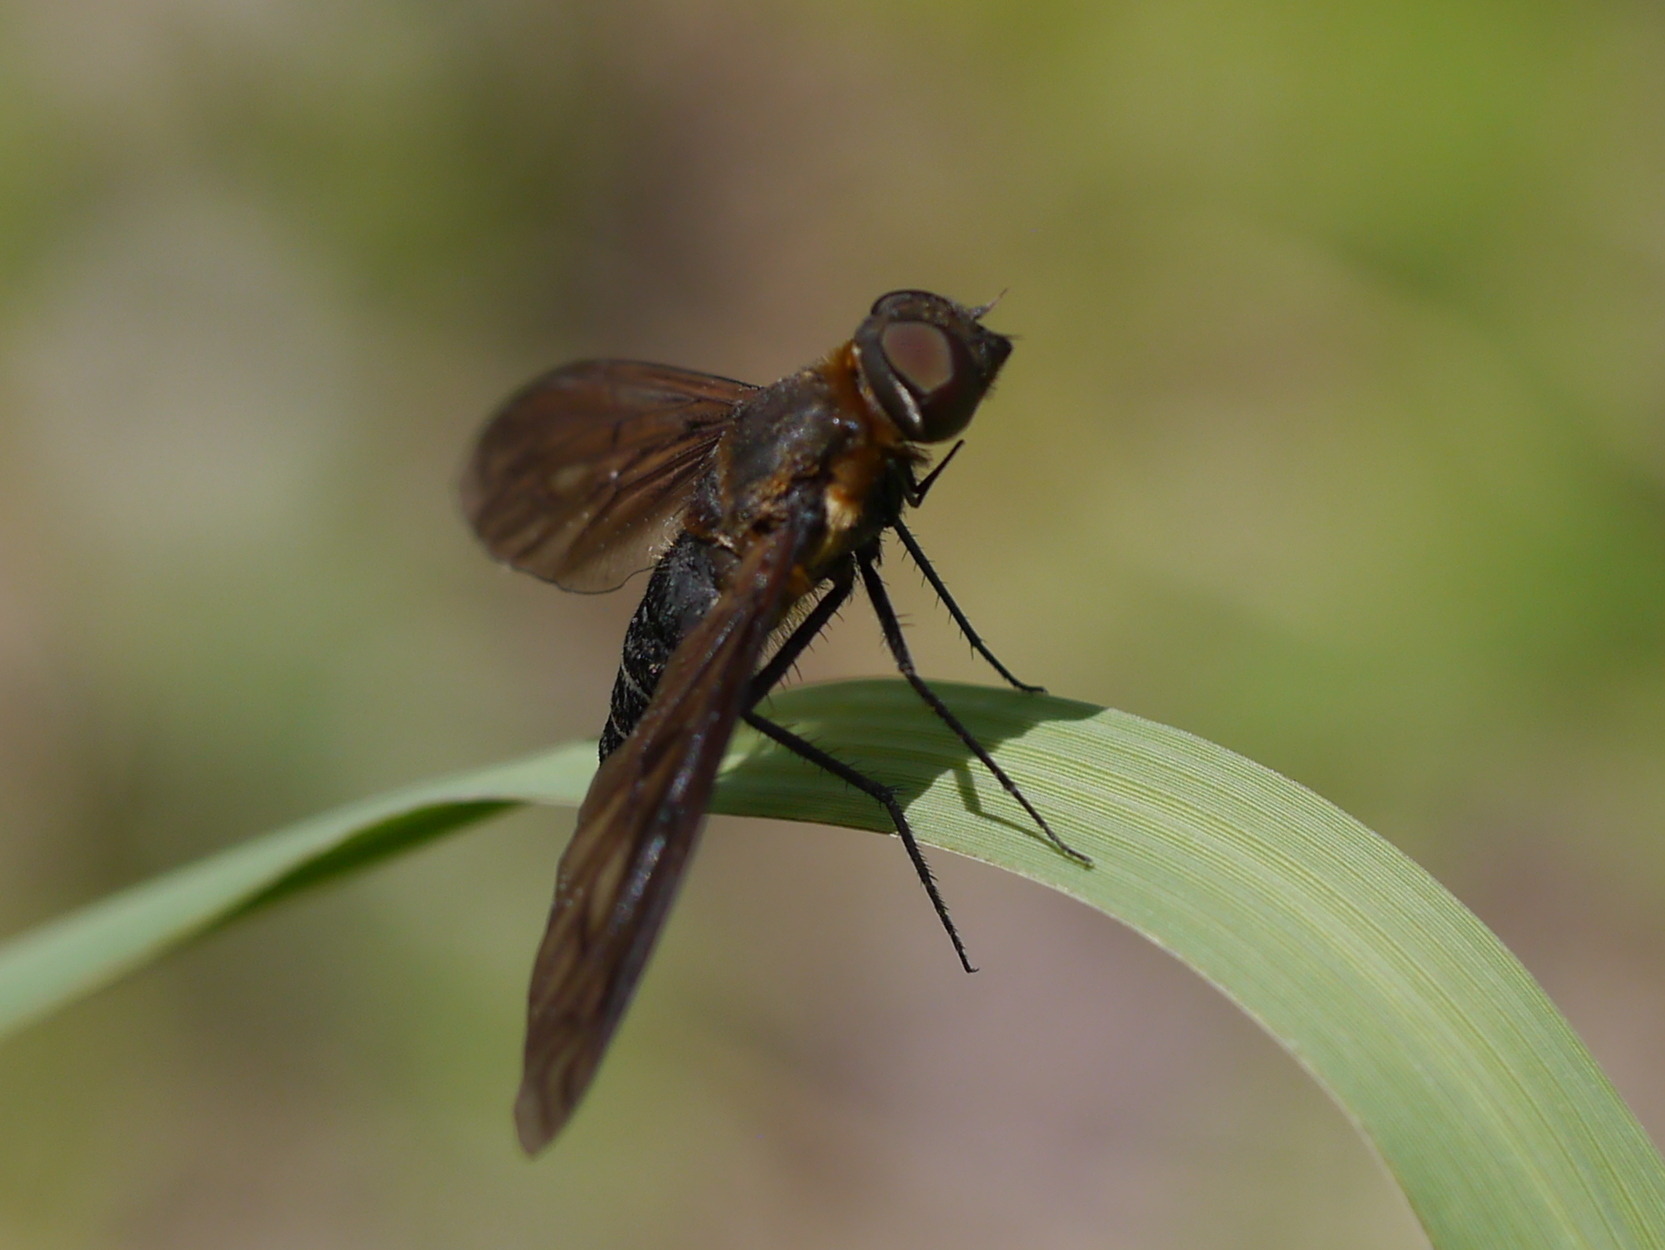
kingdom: Animalia
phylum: Arthropoda
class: Insecta
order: Diptera
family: Bombyliidae
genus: Exoprosopa
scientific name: Exoprosopa fumosa
